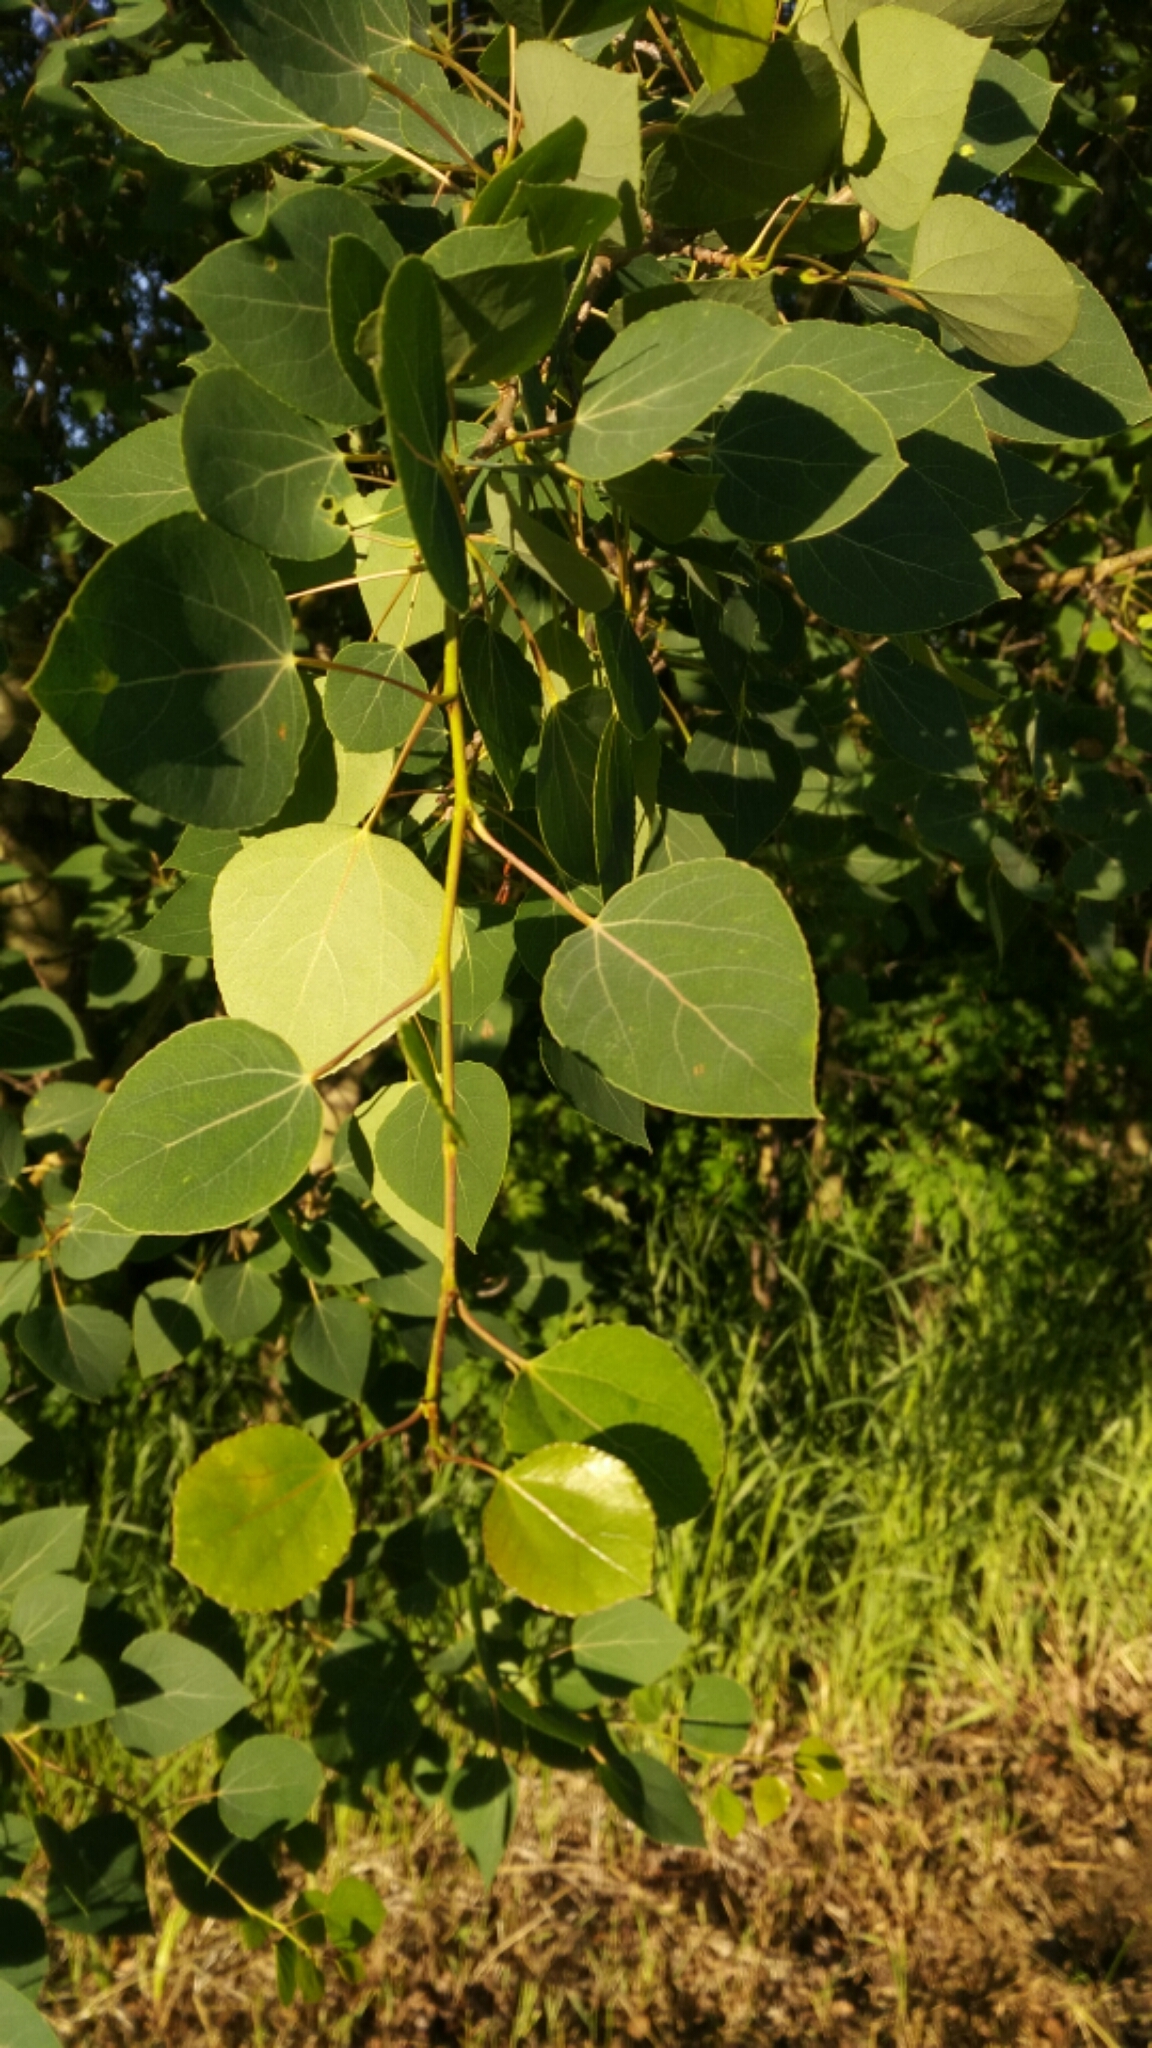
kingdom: Plantae
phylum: Tracheophyta
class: Magnoliopsida
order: Malpighiales
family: Salicaceae
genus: Populus
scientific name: Populus tremuloides
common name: Quaking aspen
